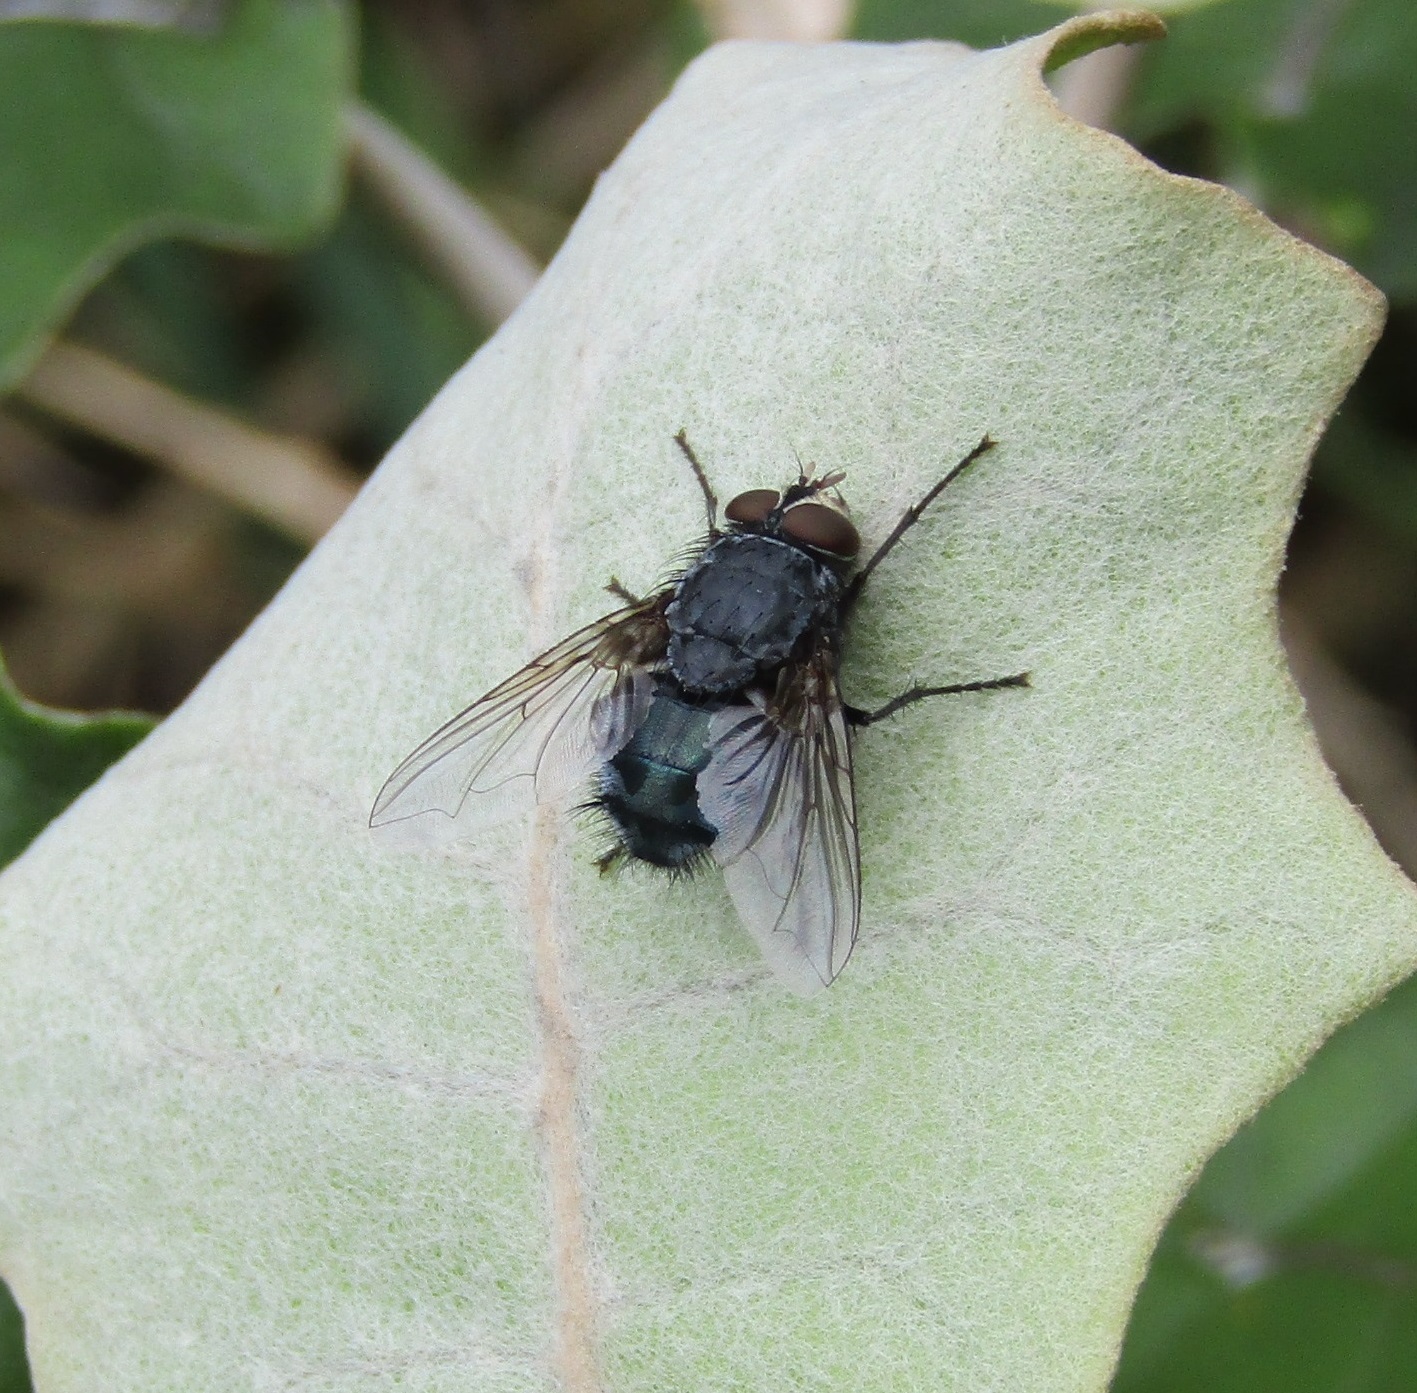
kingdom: Animalia
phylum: Arthropoda
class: Insecta
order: Diptera
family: Calliphoridae
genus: Calliphora
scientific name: Calliphora vicina
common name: Common blow flie
